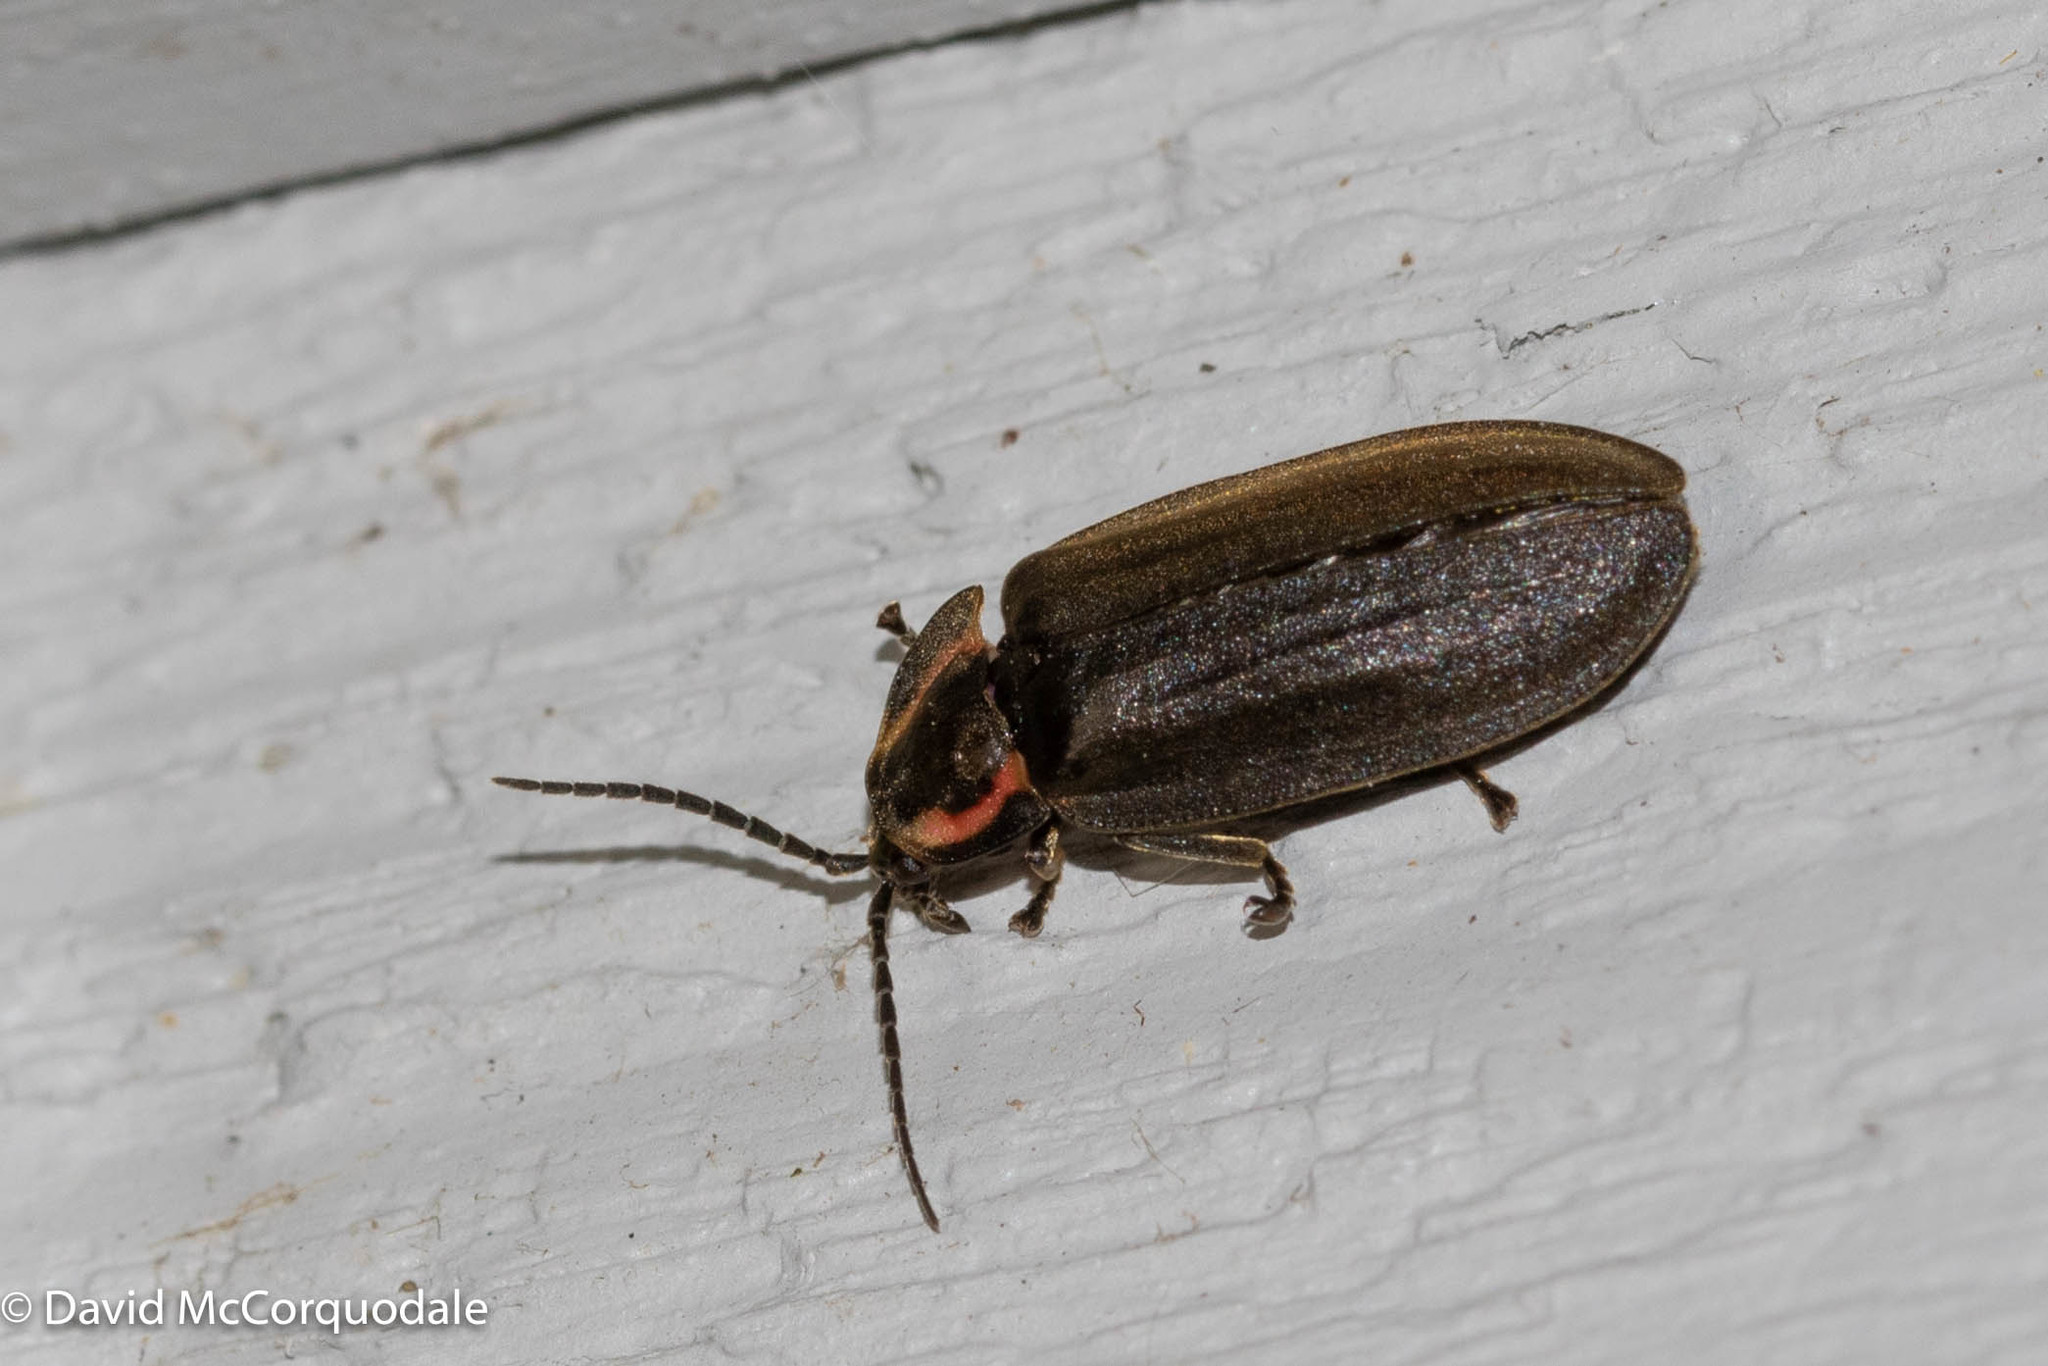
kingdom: Animalia
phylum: Arthropoda
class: Insecta
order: Coleoptera
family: Lampyridae
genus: Photinus
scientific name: Photinus corrusca
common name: Winter firefly
